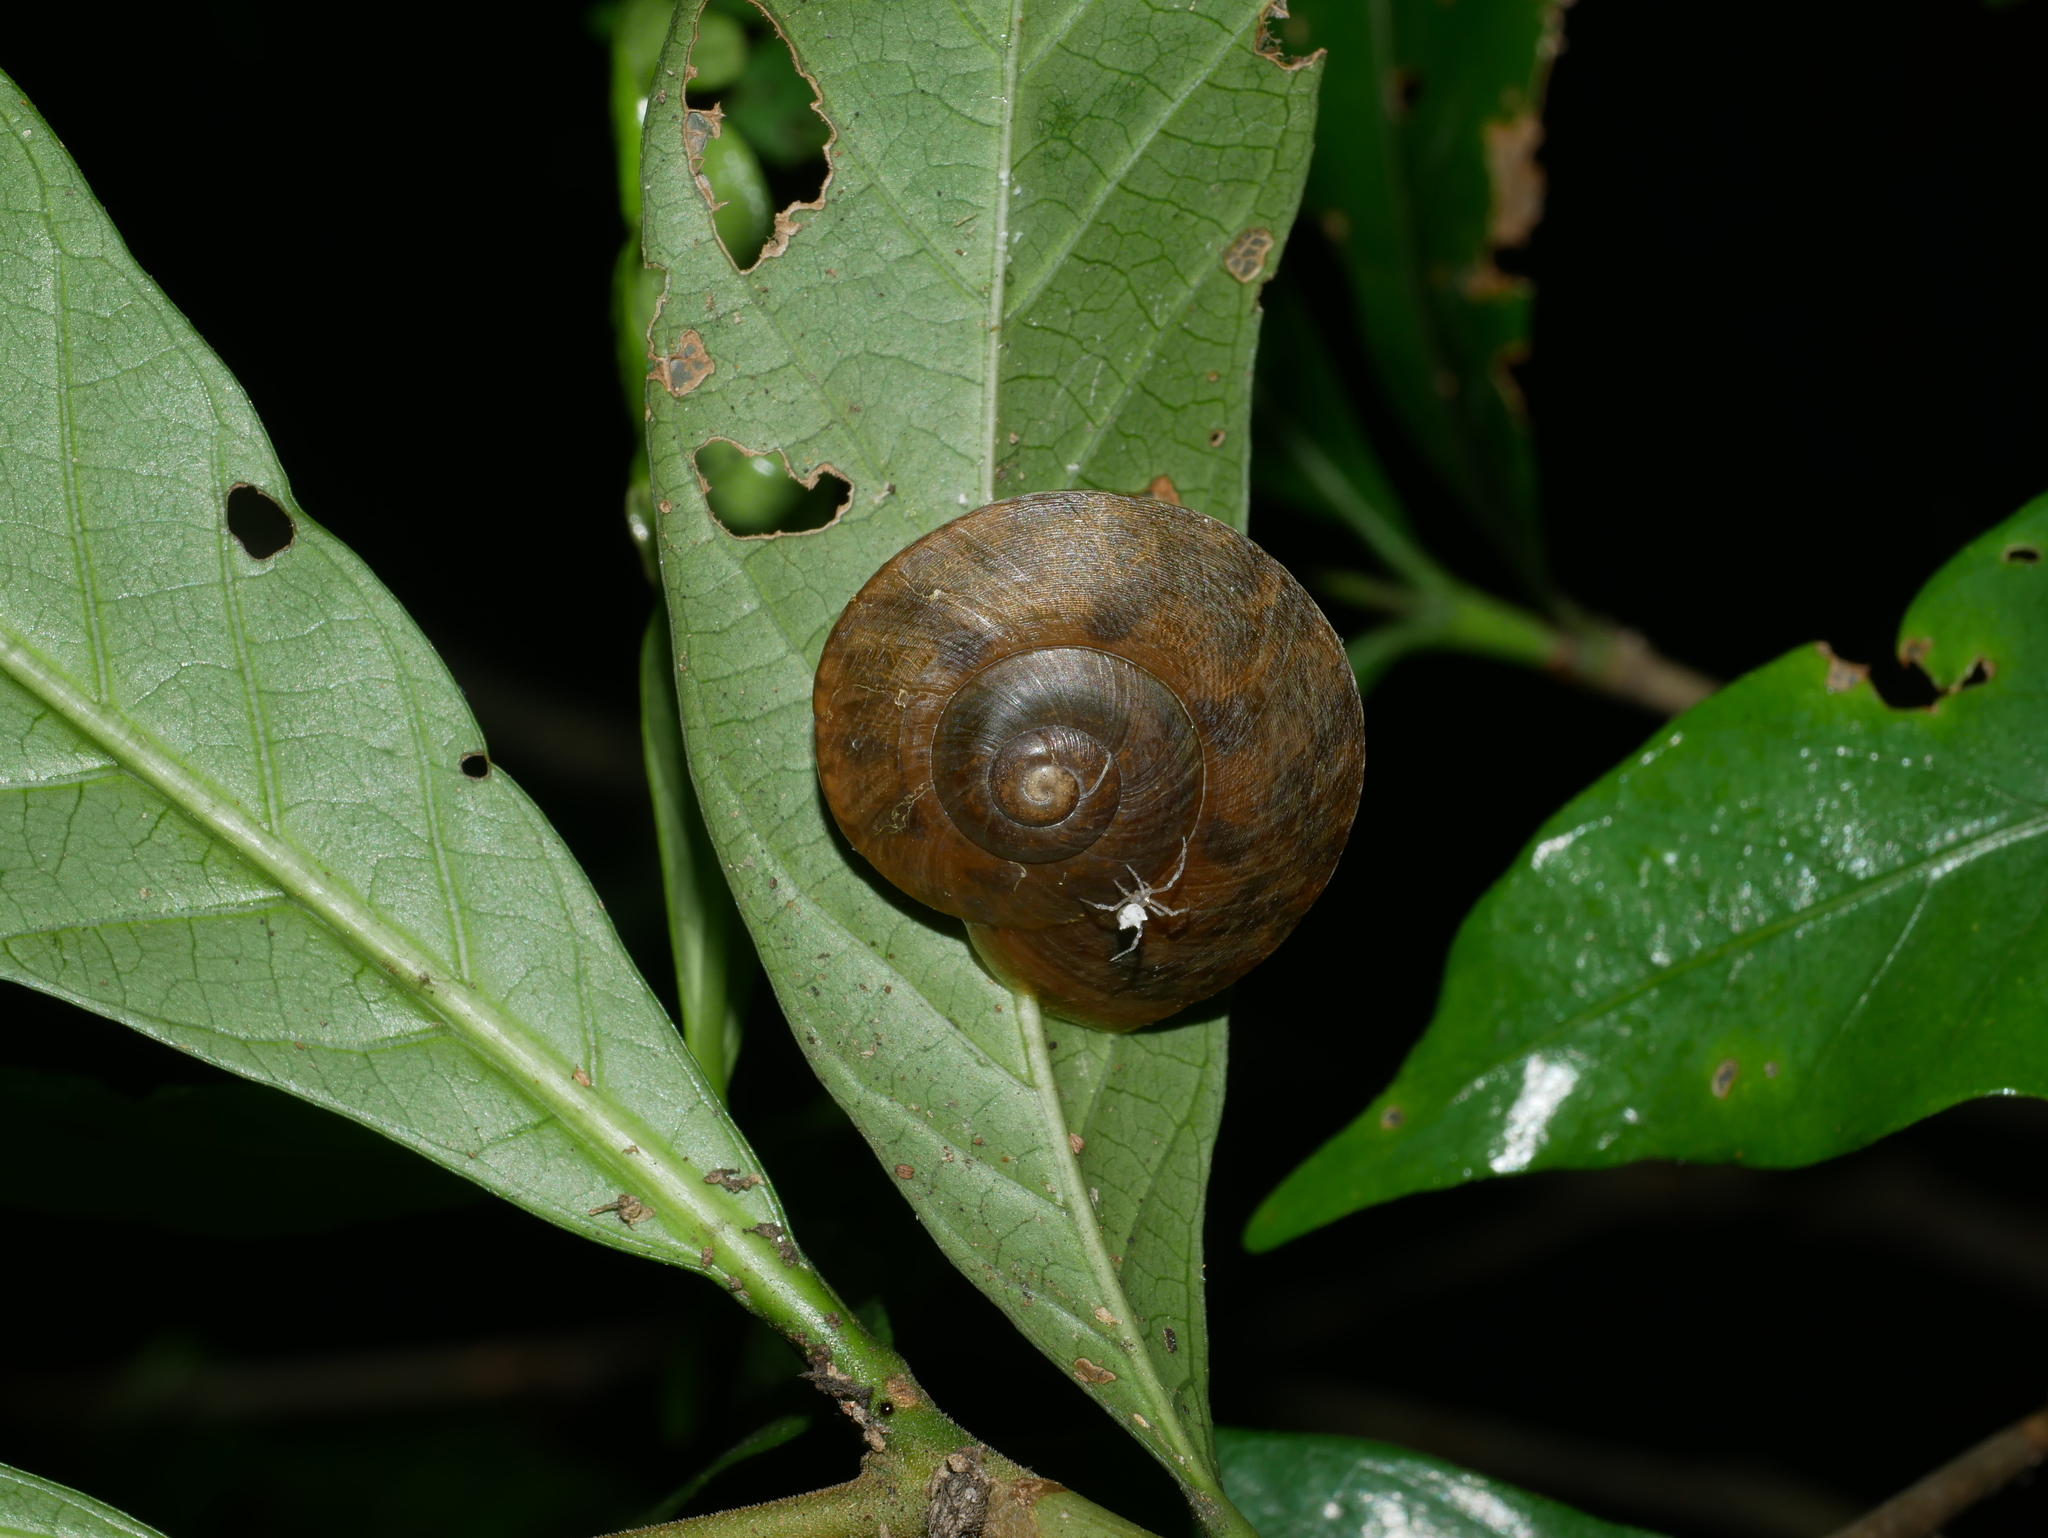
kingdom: Animalia
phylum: Mollusca
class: Gastropoda
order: Stylommatophora
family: Camaenidae
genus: Nesiohelix
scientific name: Nesiohelix swinhoei
